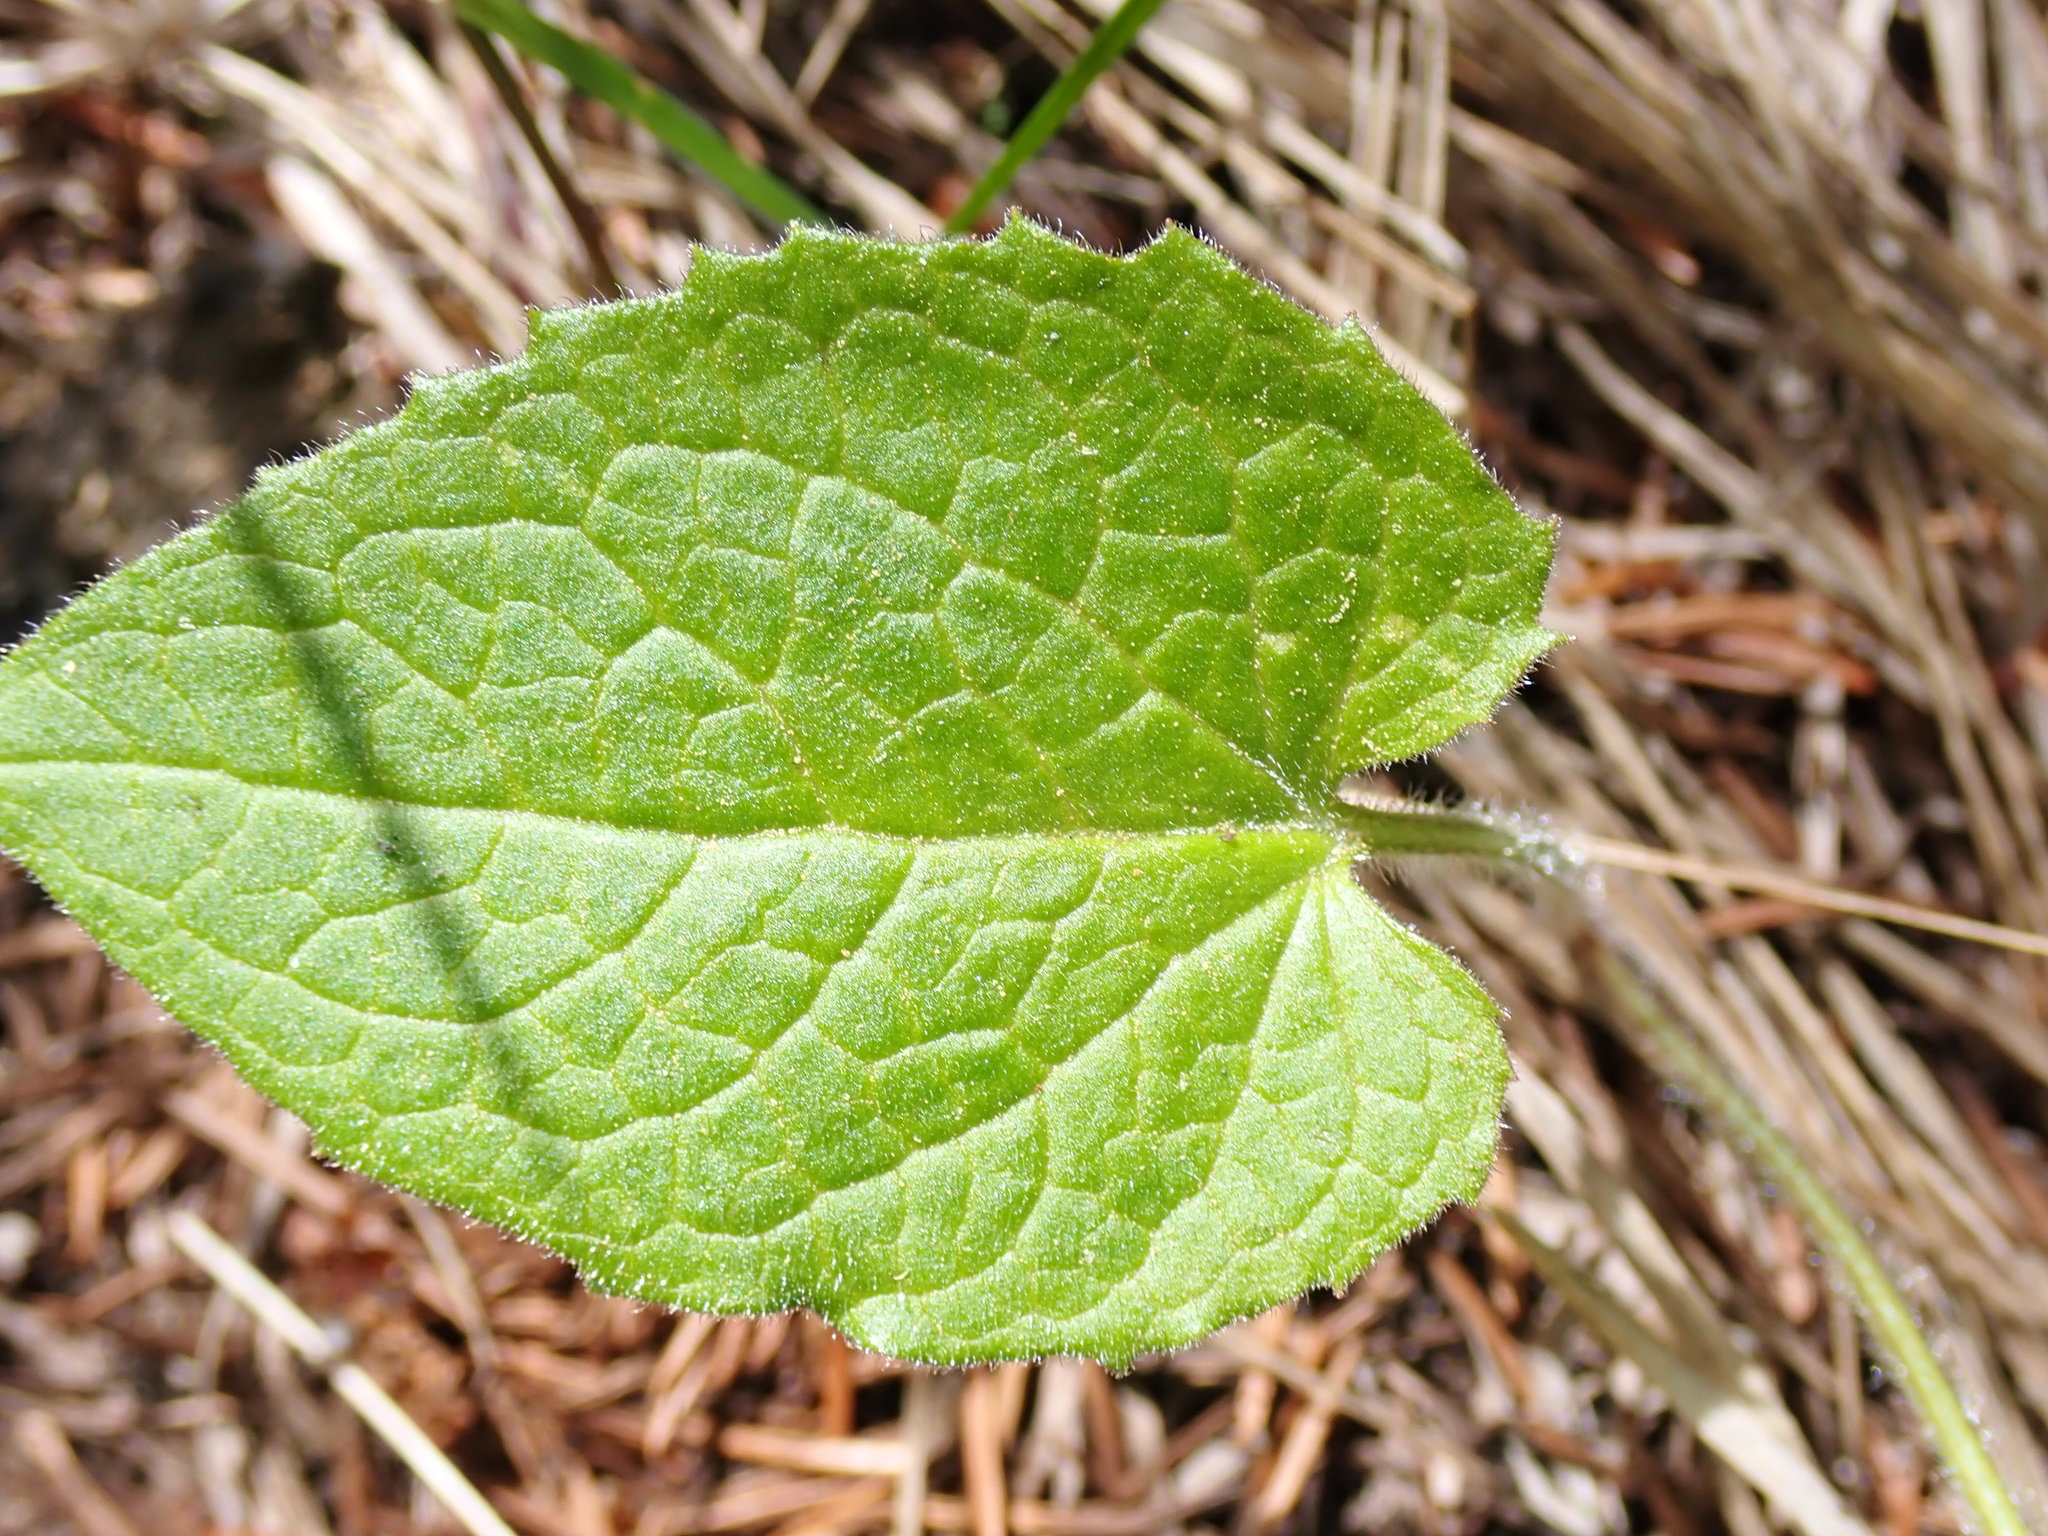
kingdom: Plantae
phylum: Tracheophyta
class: Magnoliopsida
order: Asterales
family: Asteraceae
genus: Arnica
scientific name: Arnica cordifolia
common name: Heart-leaf arnica
